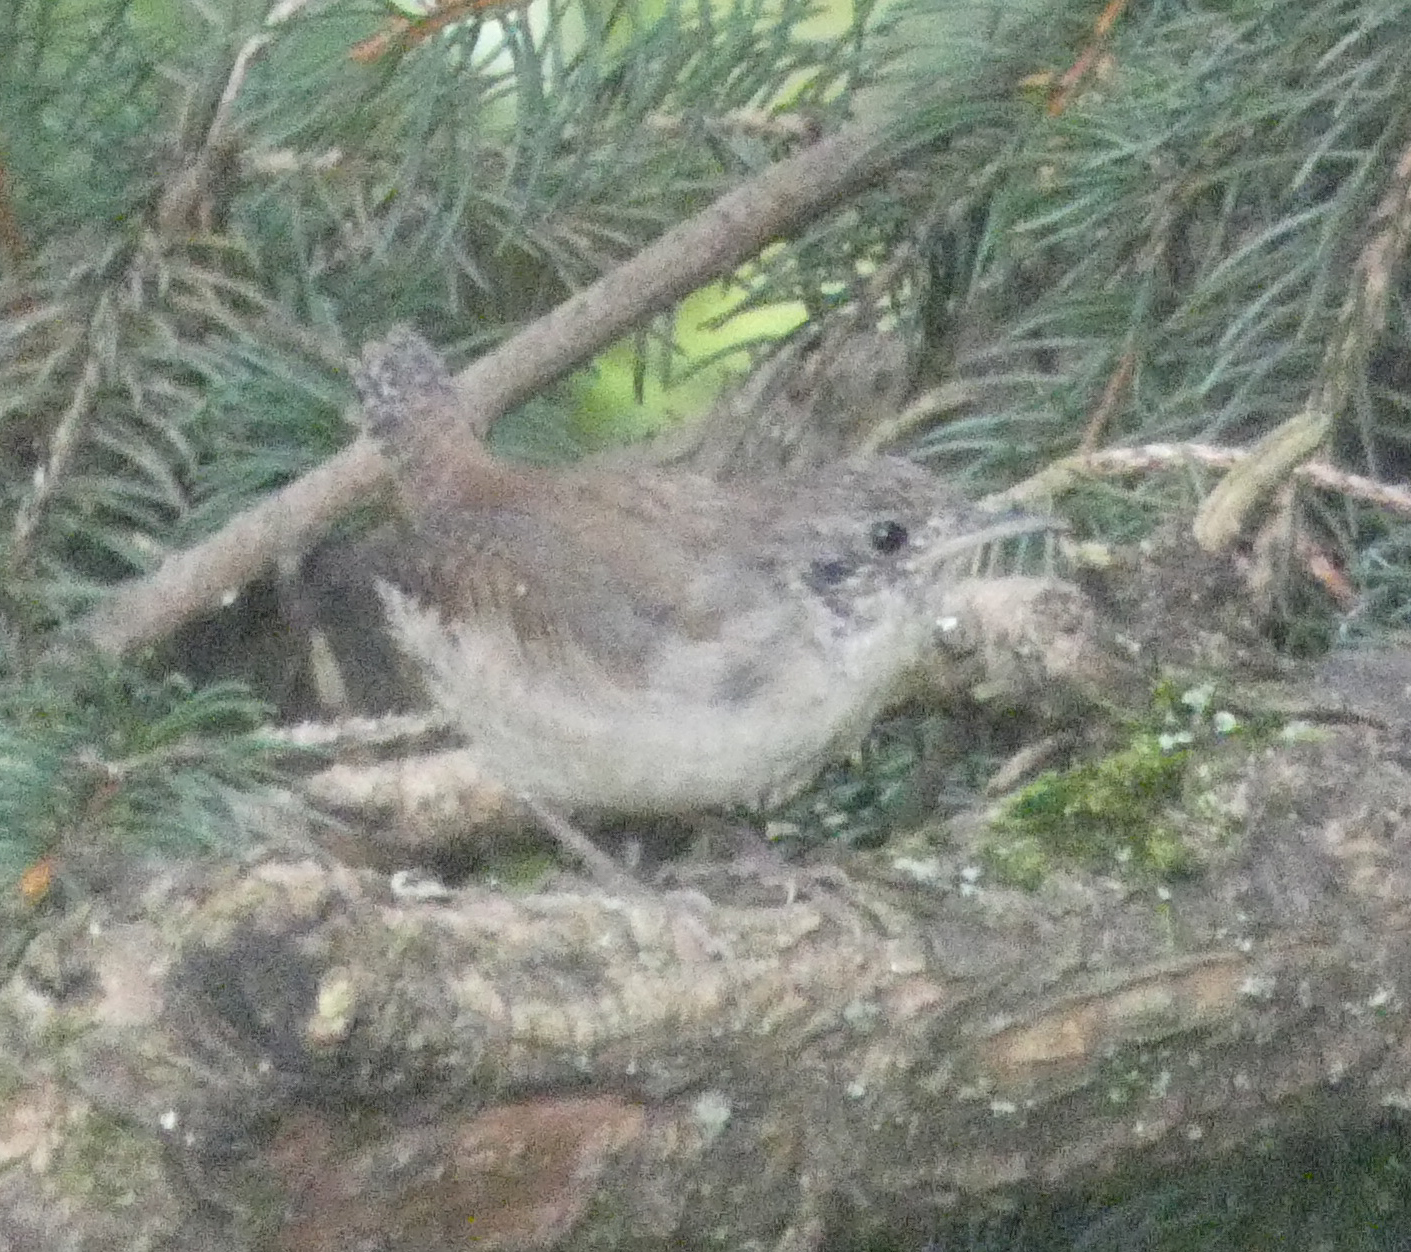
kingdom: Animalia
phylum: Chordata
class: Aves
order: Passeriformes
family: Troglodytidae
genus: Troglodytes
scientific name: Troglodytes aedon
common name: House wren
